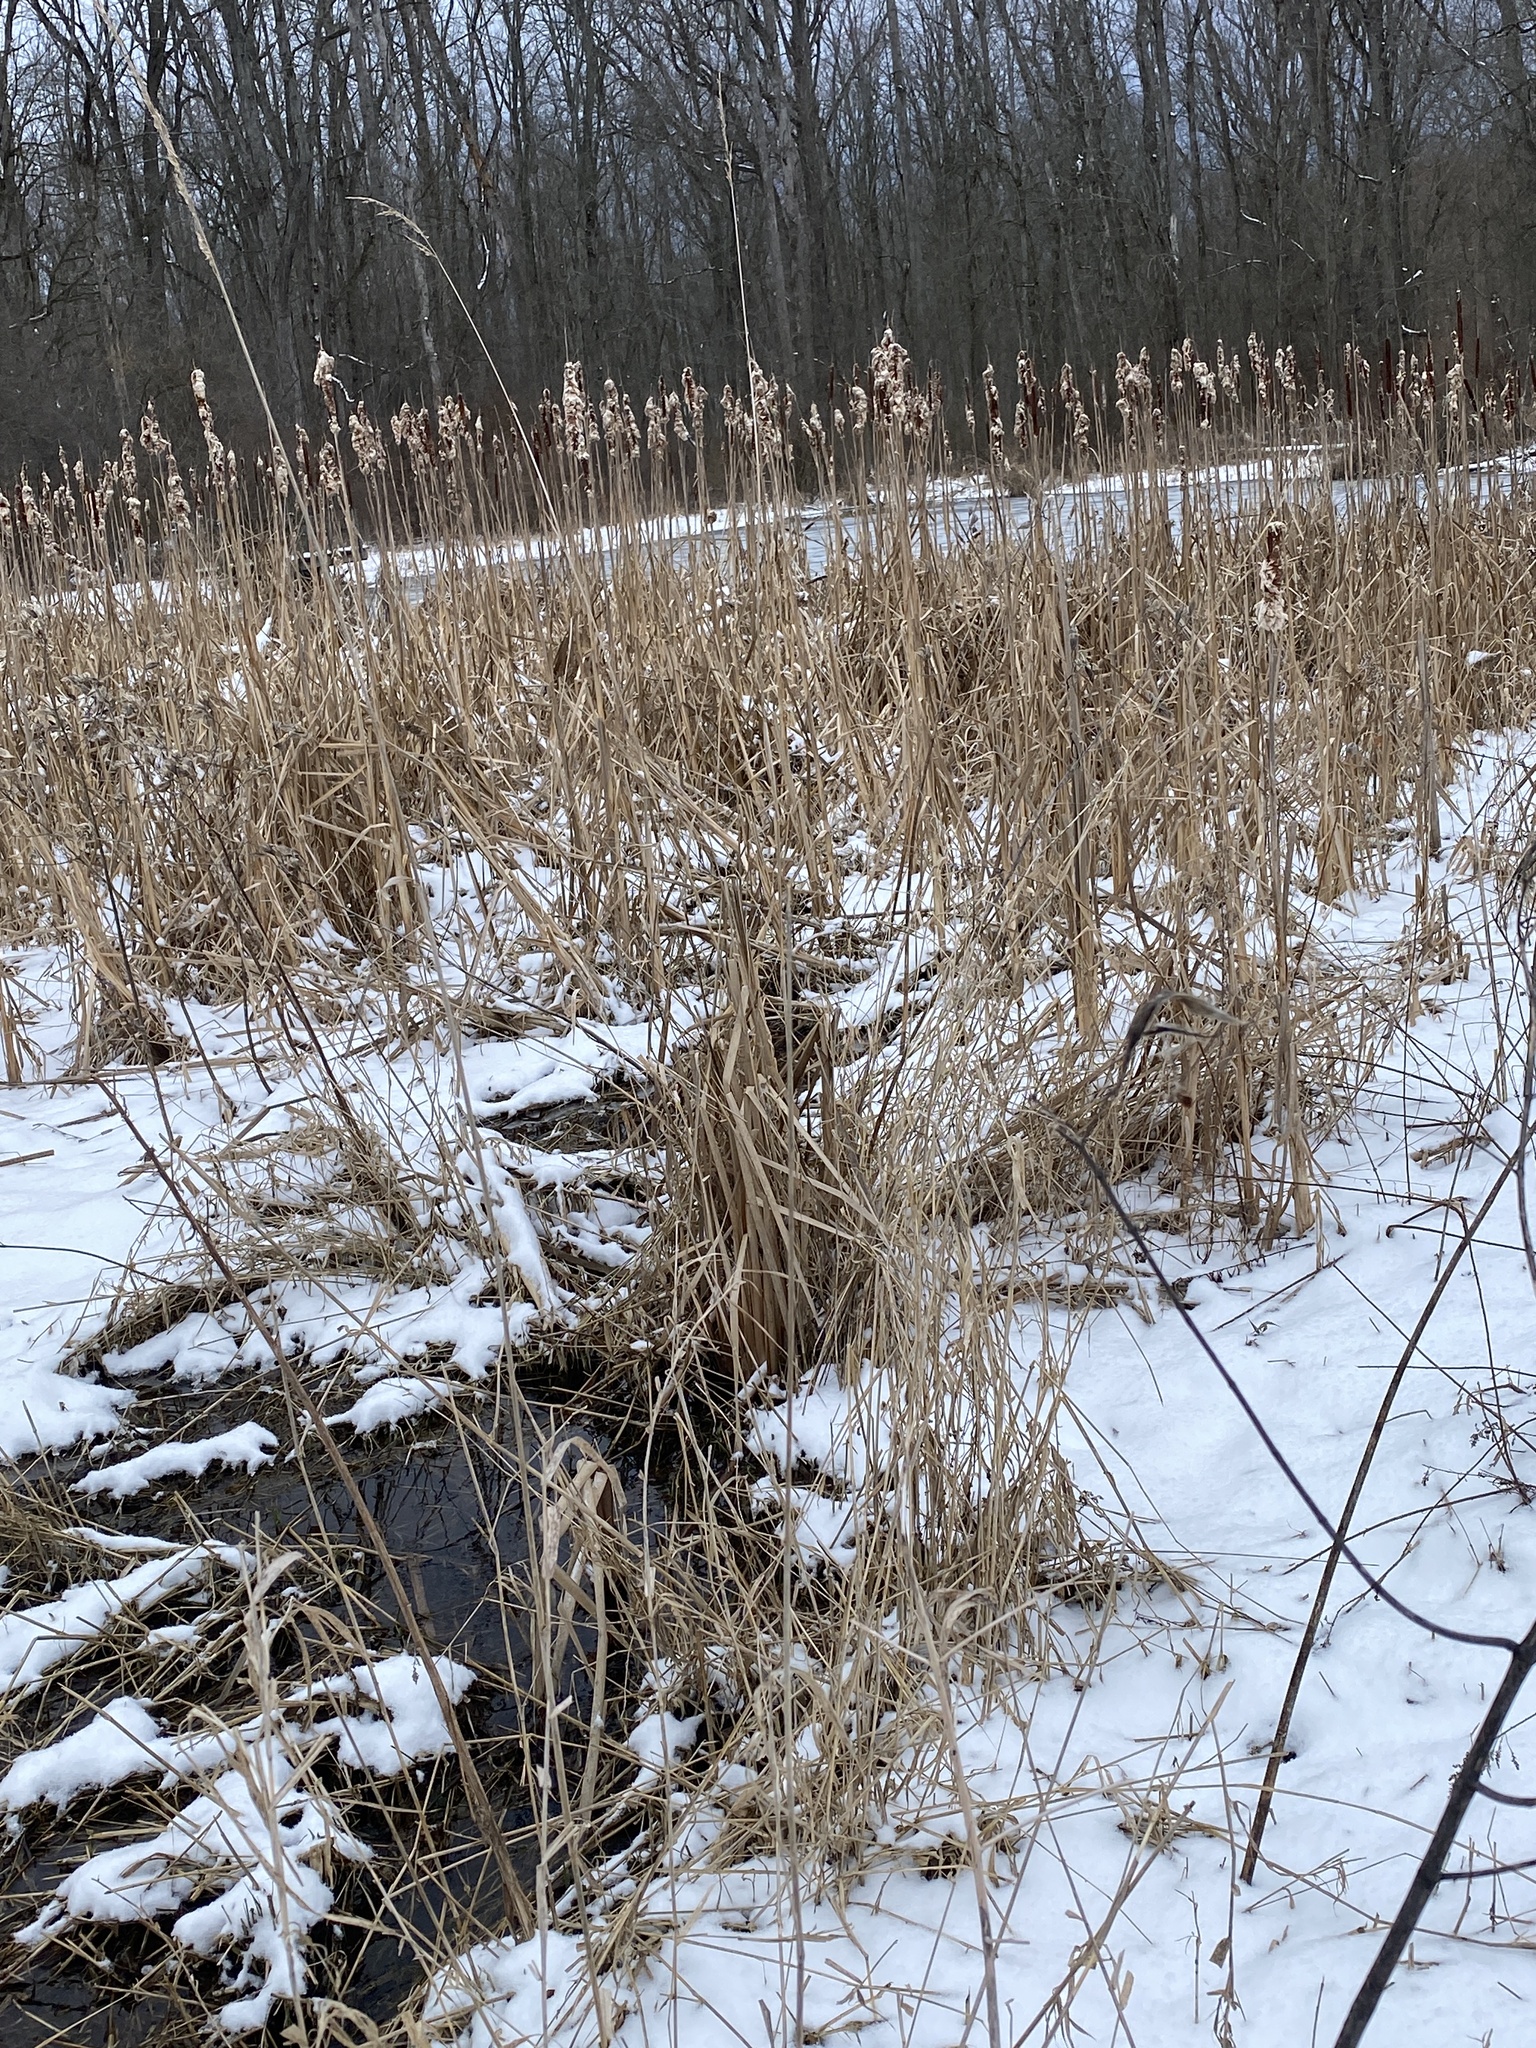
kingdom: Plantae
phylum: Tracheophyta
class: Magnoliopsida
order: Gentianales
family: Apocynaceae
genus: Asclepias
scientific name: Asclepias incarnata
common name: Swamp milkweed
